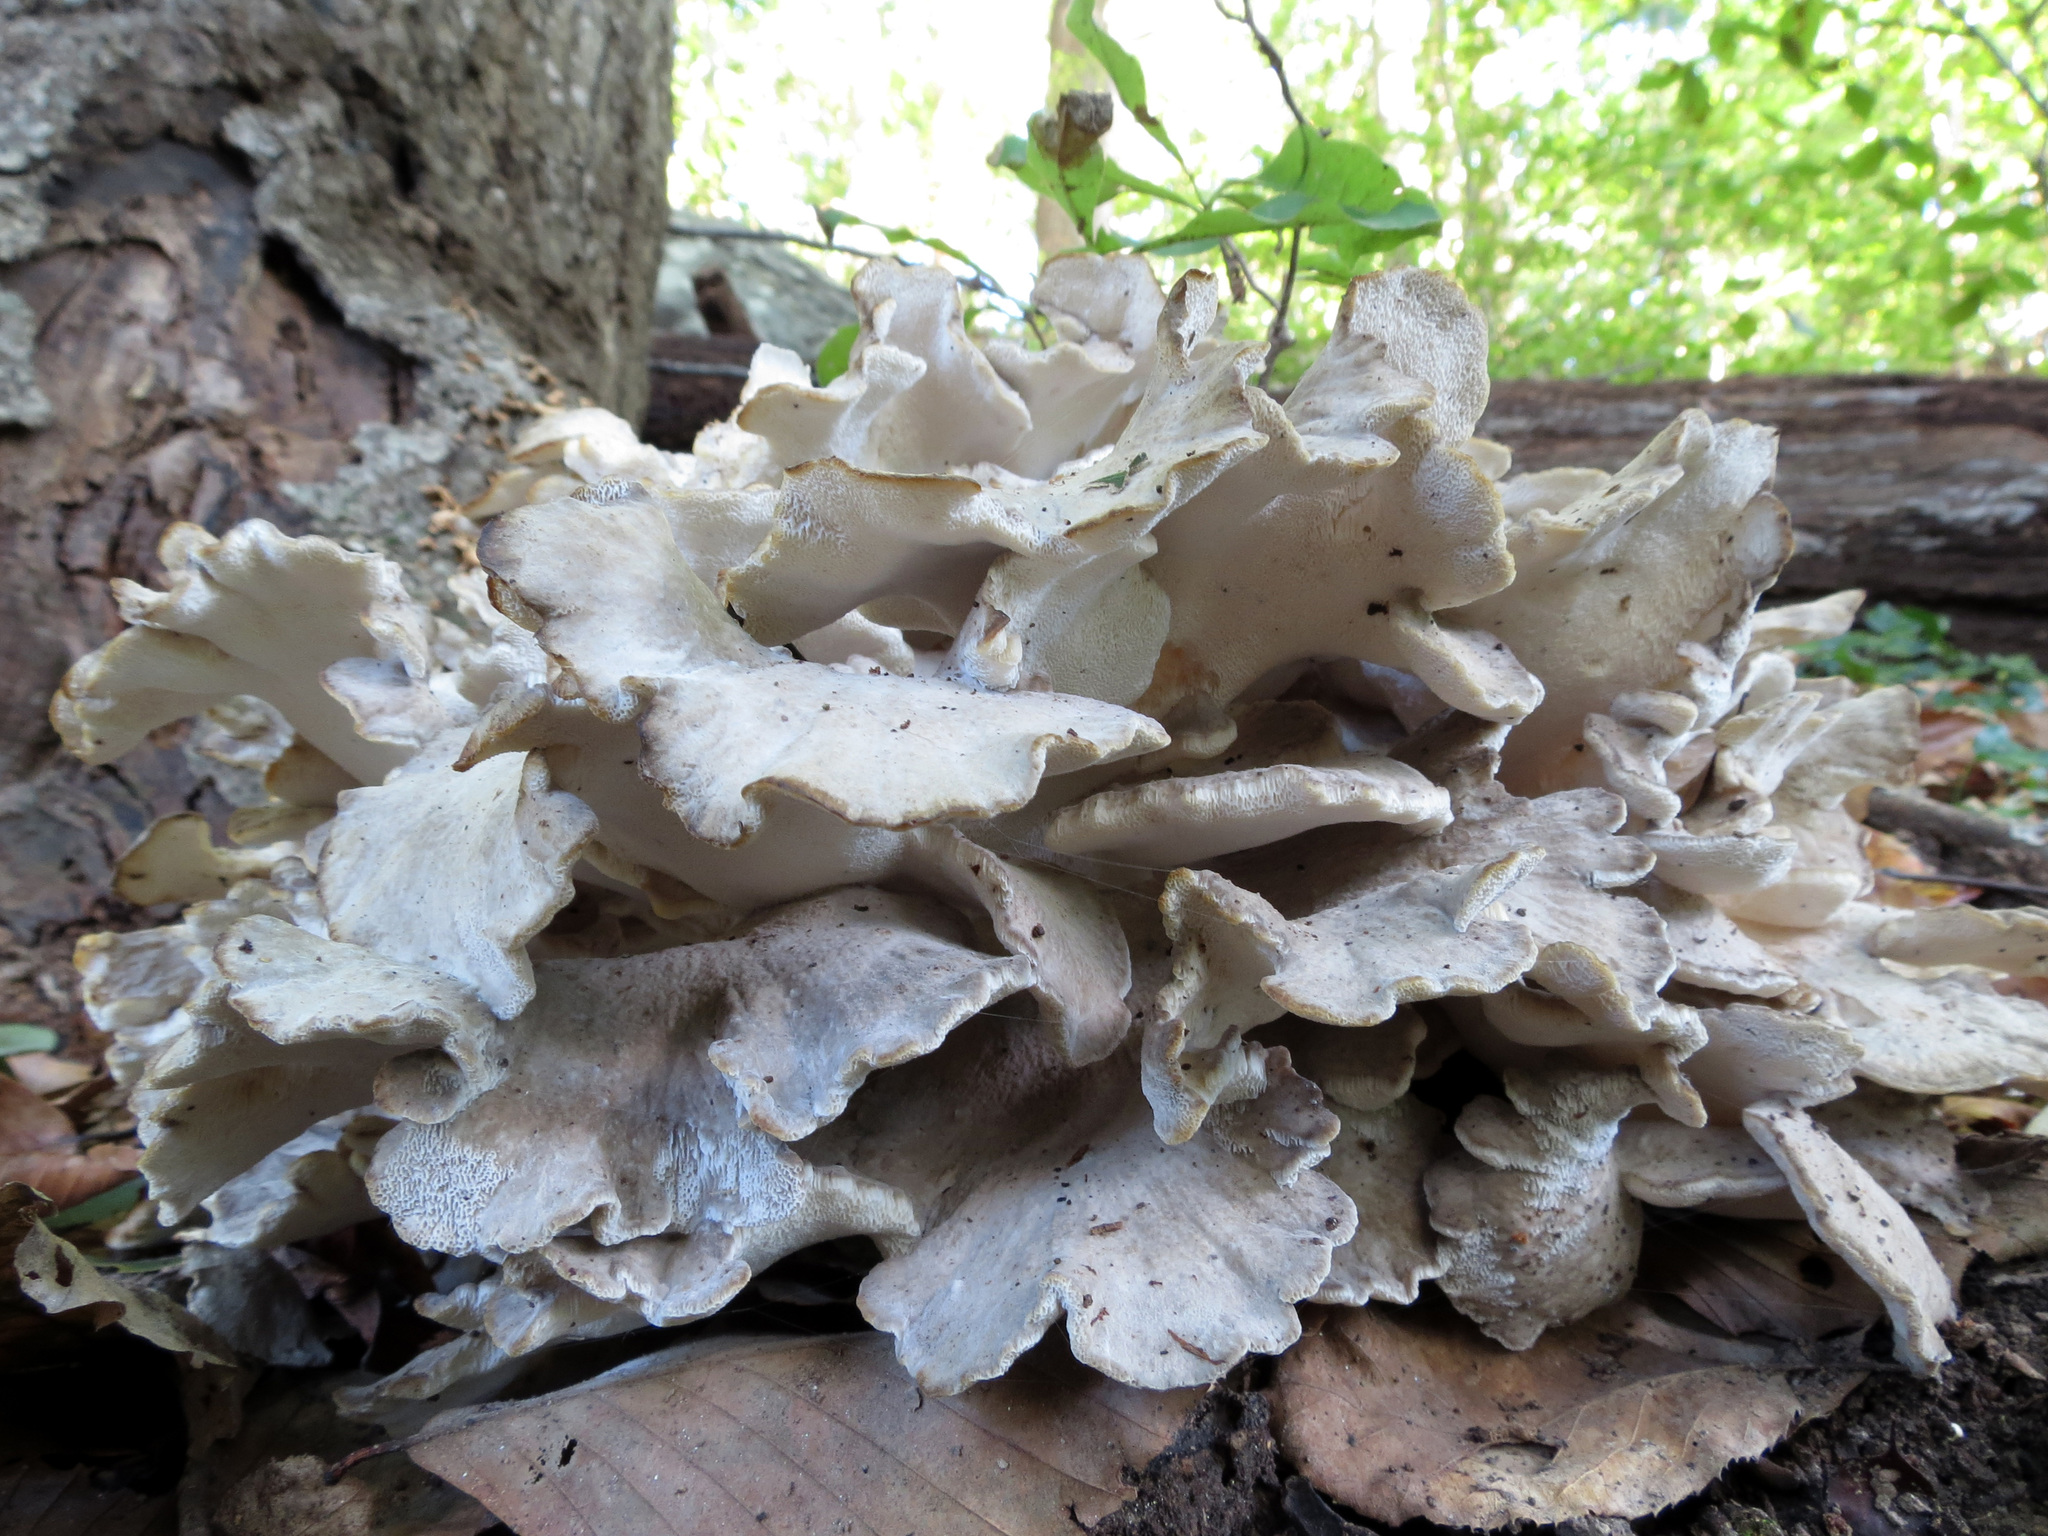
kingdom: Fungi
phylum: Basidiomycota
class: Agaricomycetes
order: Polyporales
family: Grifolaceae
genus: Grifola
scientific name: Grifola frondosa
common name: Hen of the woods
